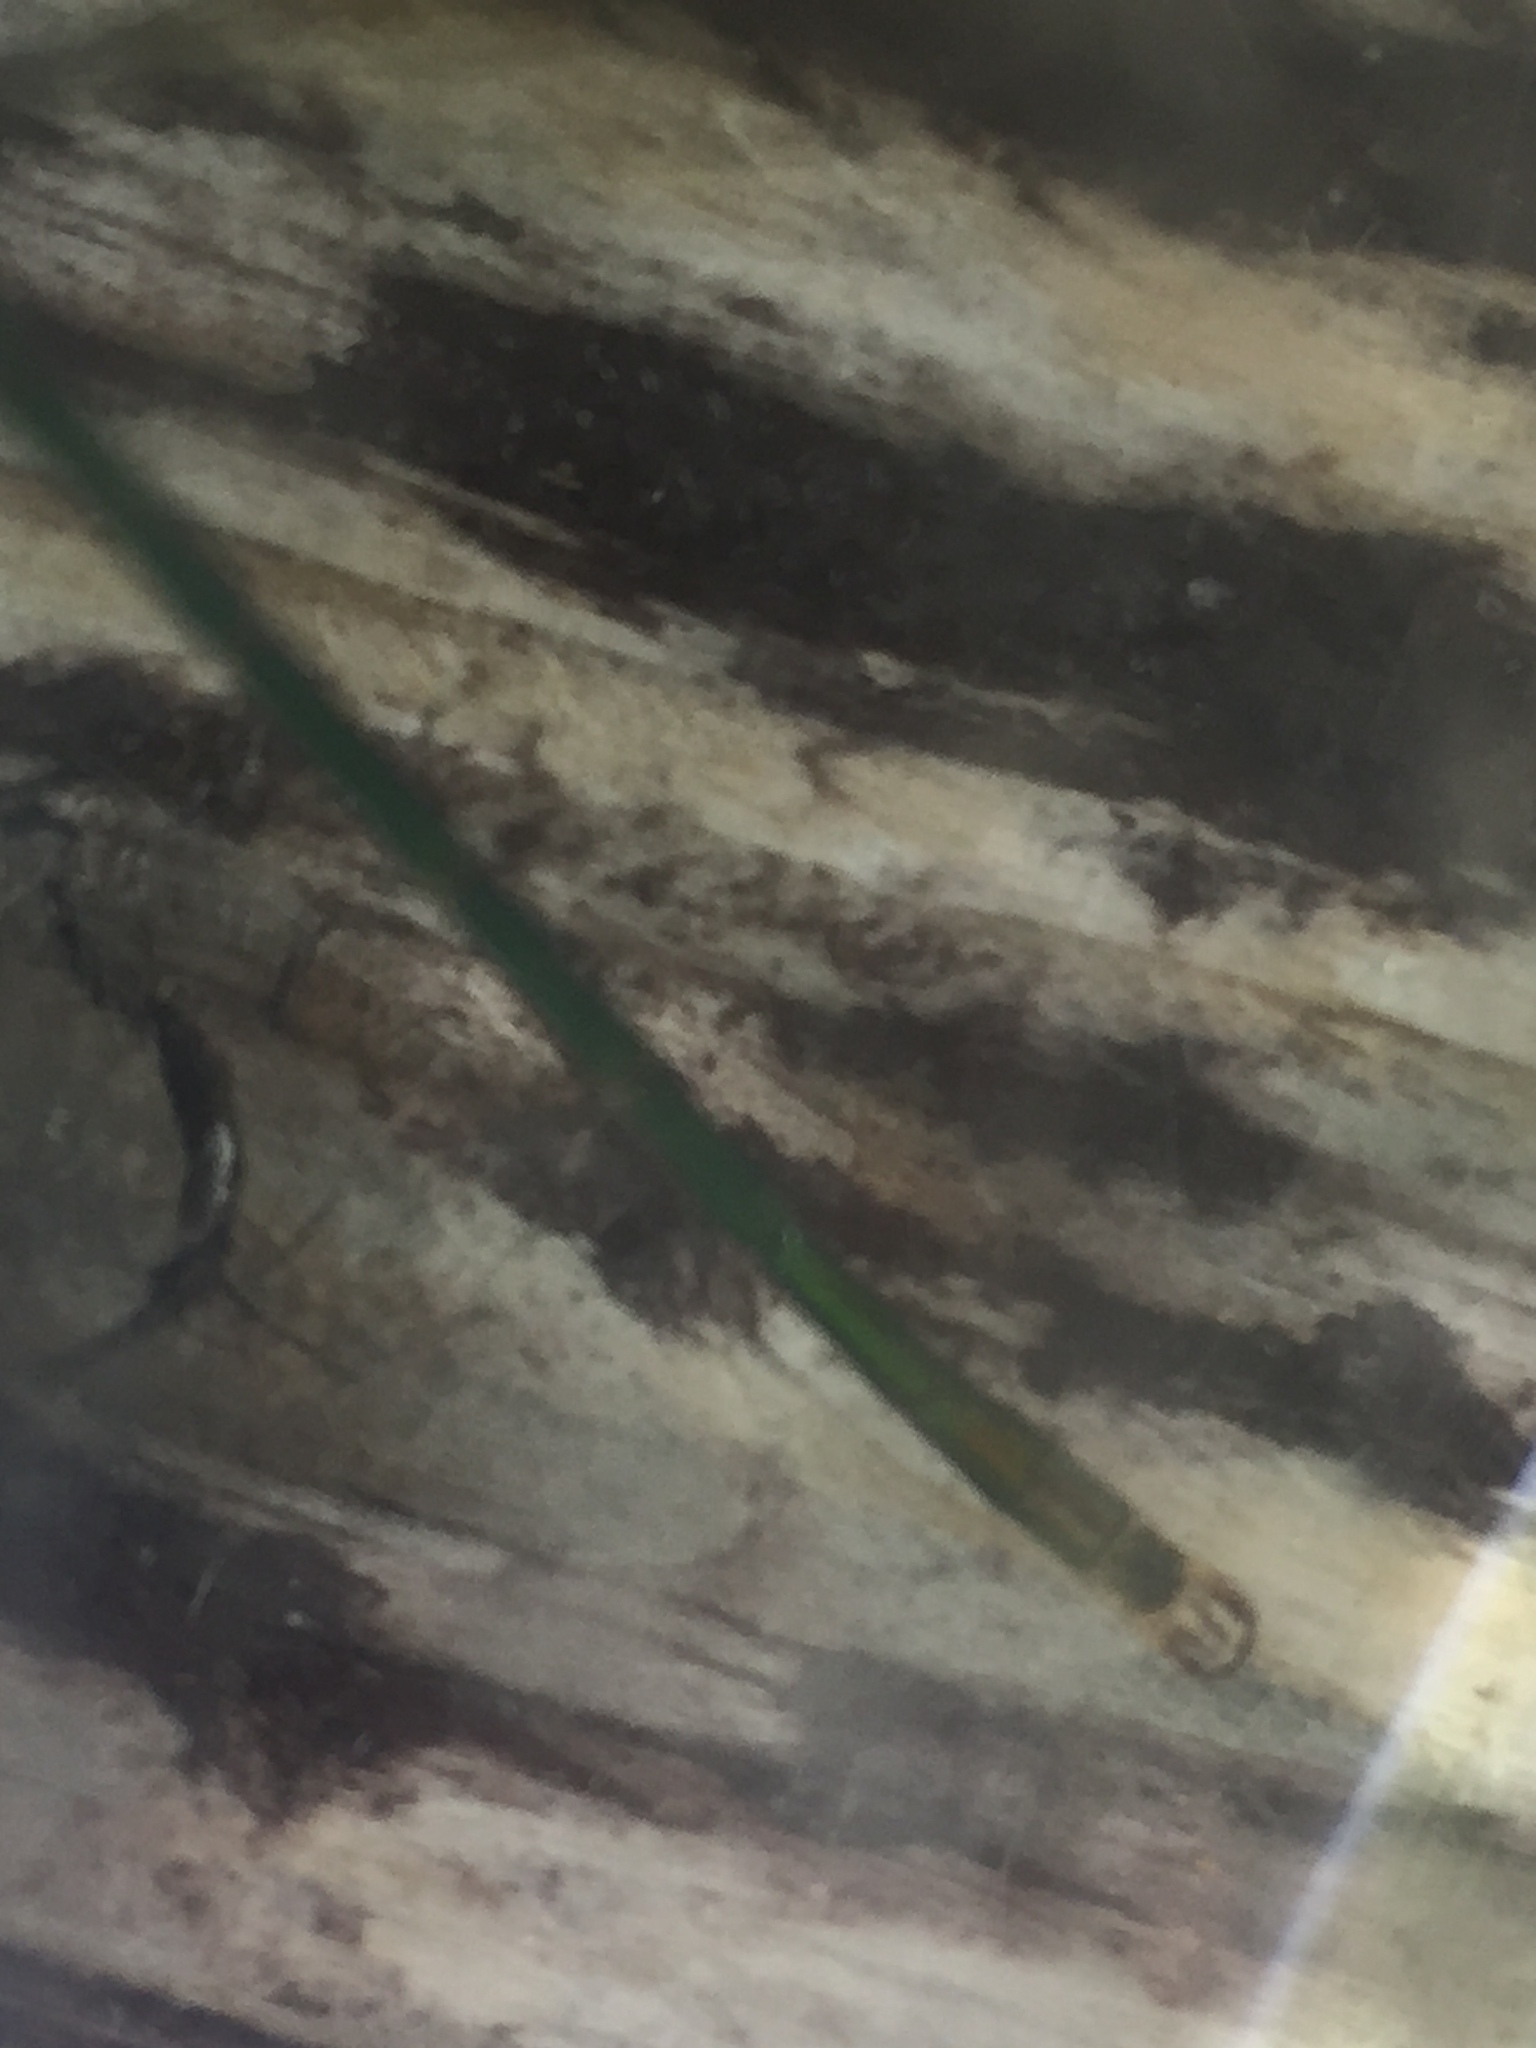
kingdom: Animalia
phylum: Arthropoda
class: Insecta
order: Odonata
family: Lestidae
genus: Lestes
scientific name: Lestes sponsa
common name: Common spreadwing
